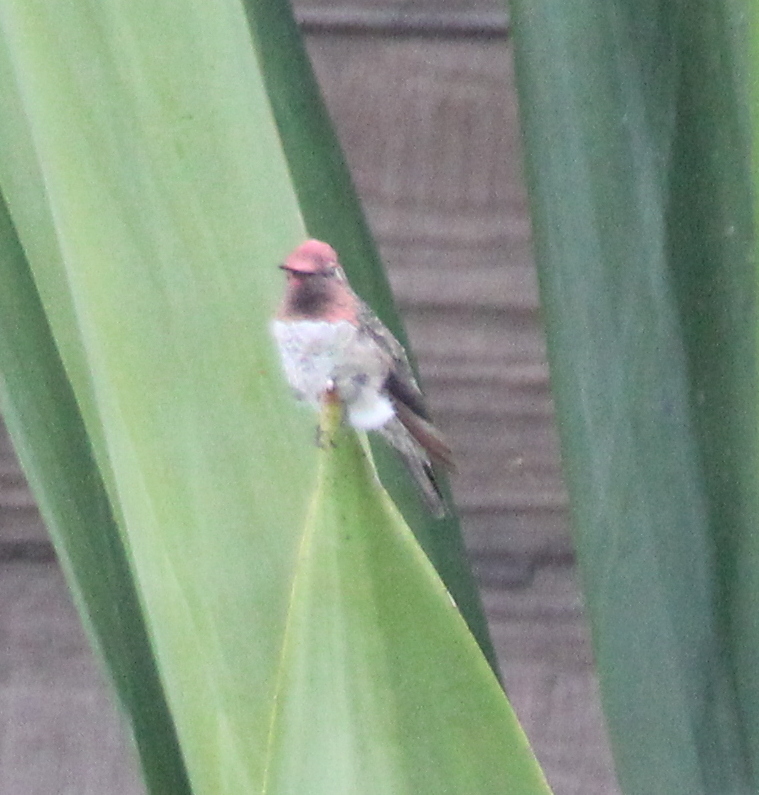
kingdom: Animalia
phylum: Chordata
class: Aves
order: Apodiformes
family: Trochilidae
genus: Calypte
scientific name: Calypte anna
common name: Anna's hummingbird
